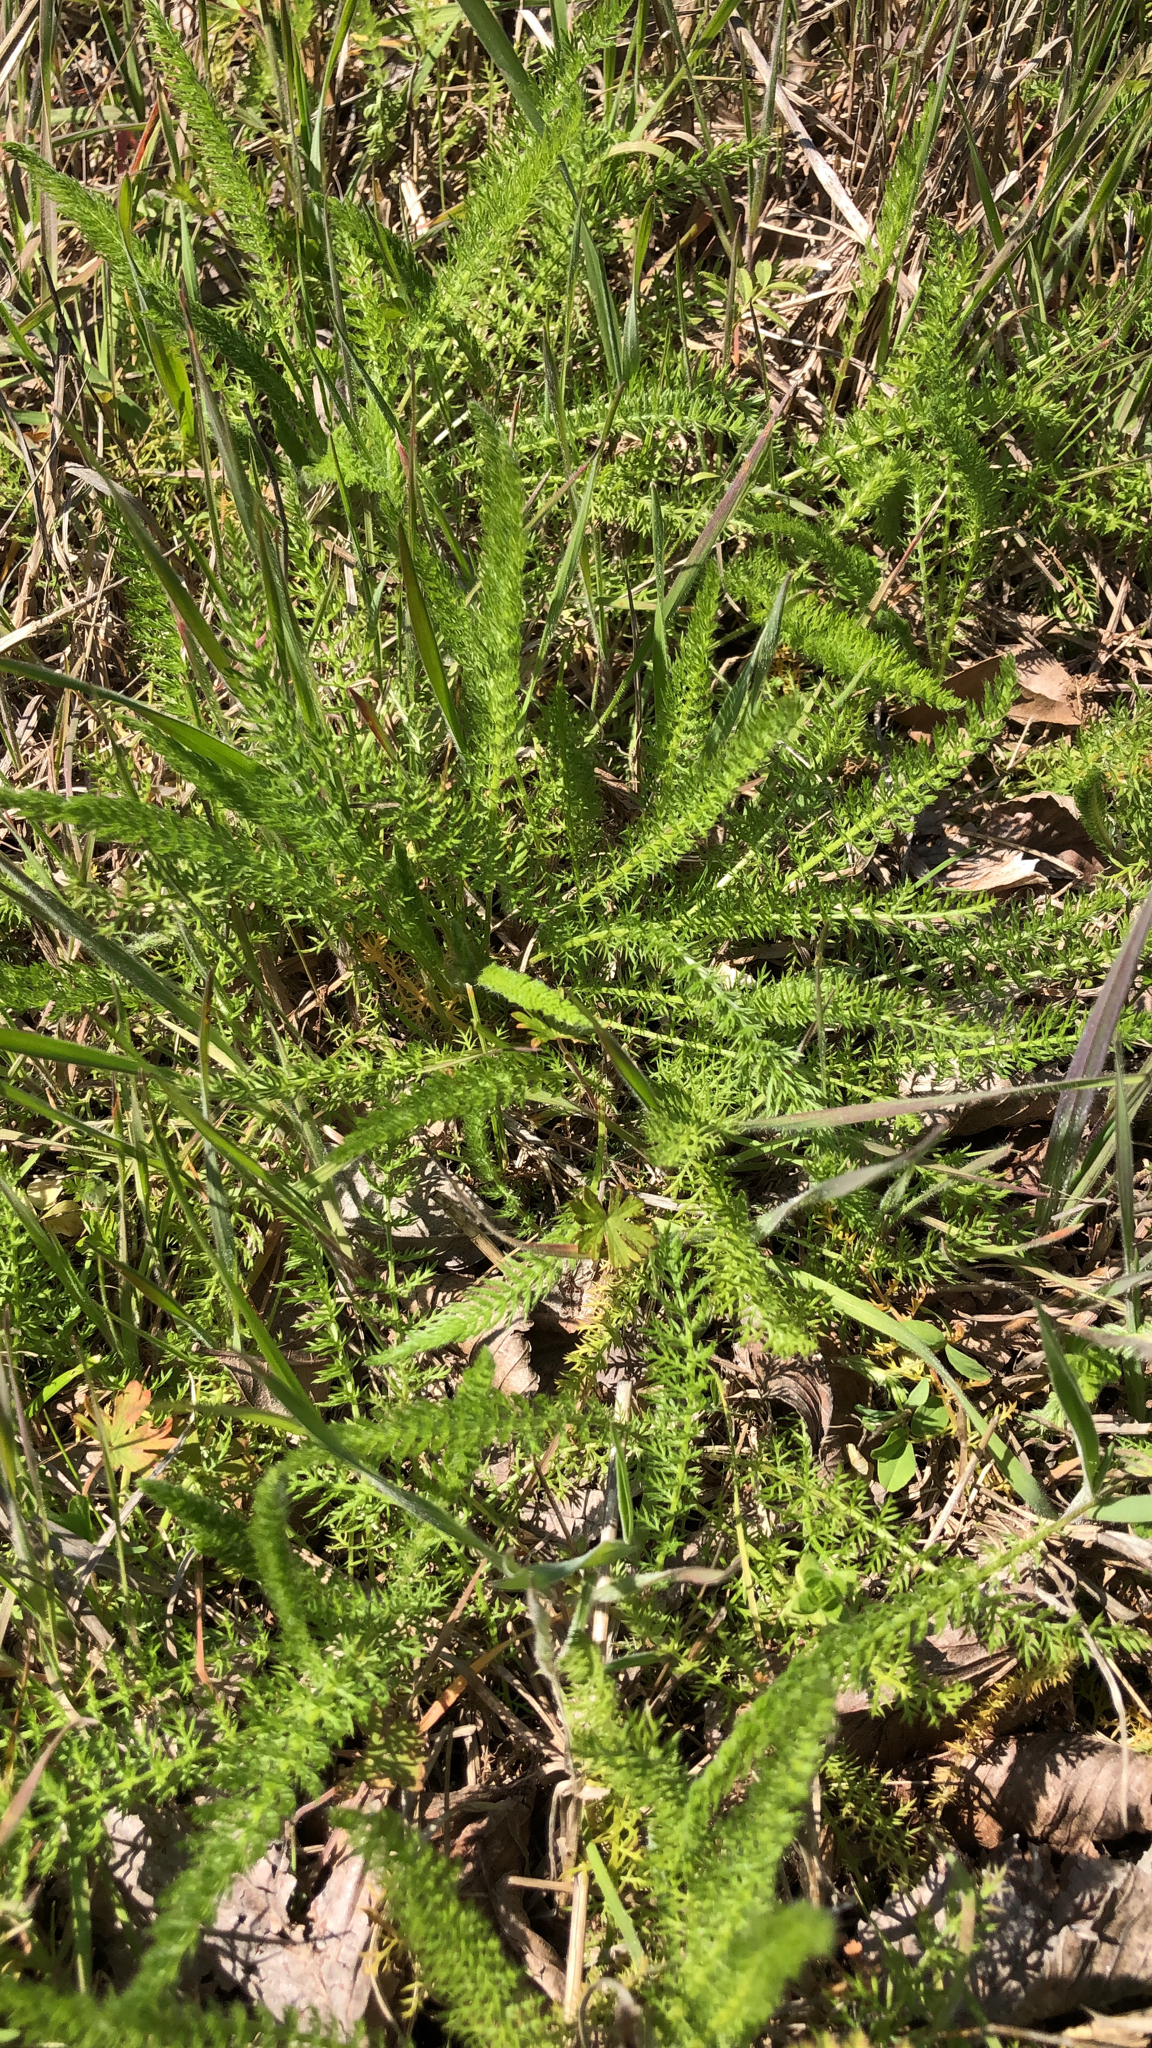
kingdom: Plantae
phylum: Tracheophyta
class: Magnoliopsida
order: Asterales
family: Asteraceae
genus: Achillea
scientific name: Achillea millefolium
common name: Yarrow
